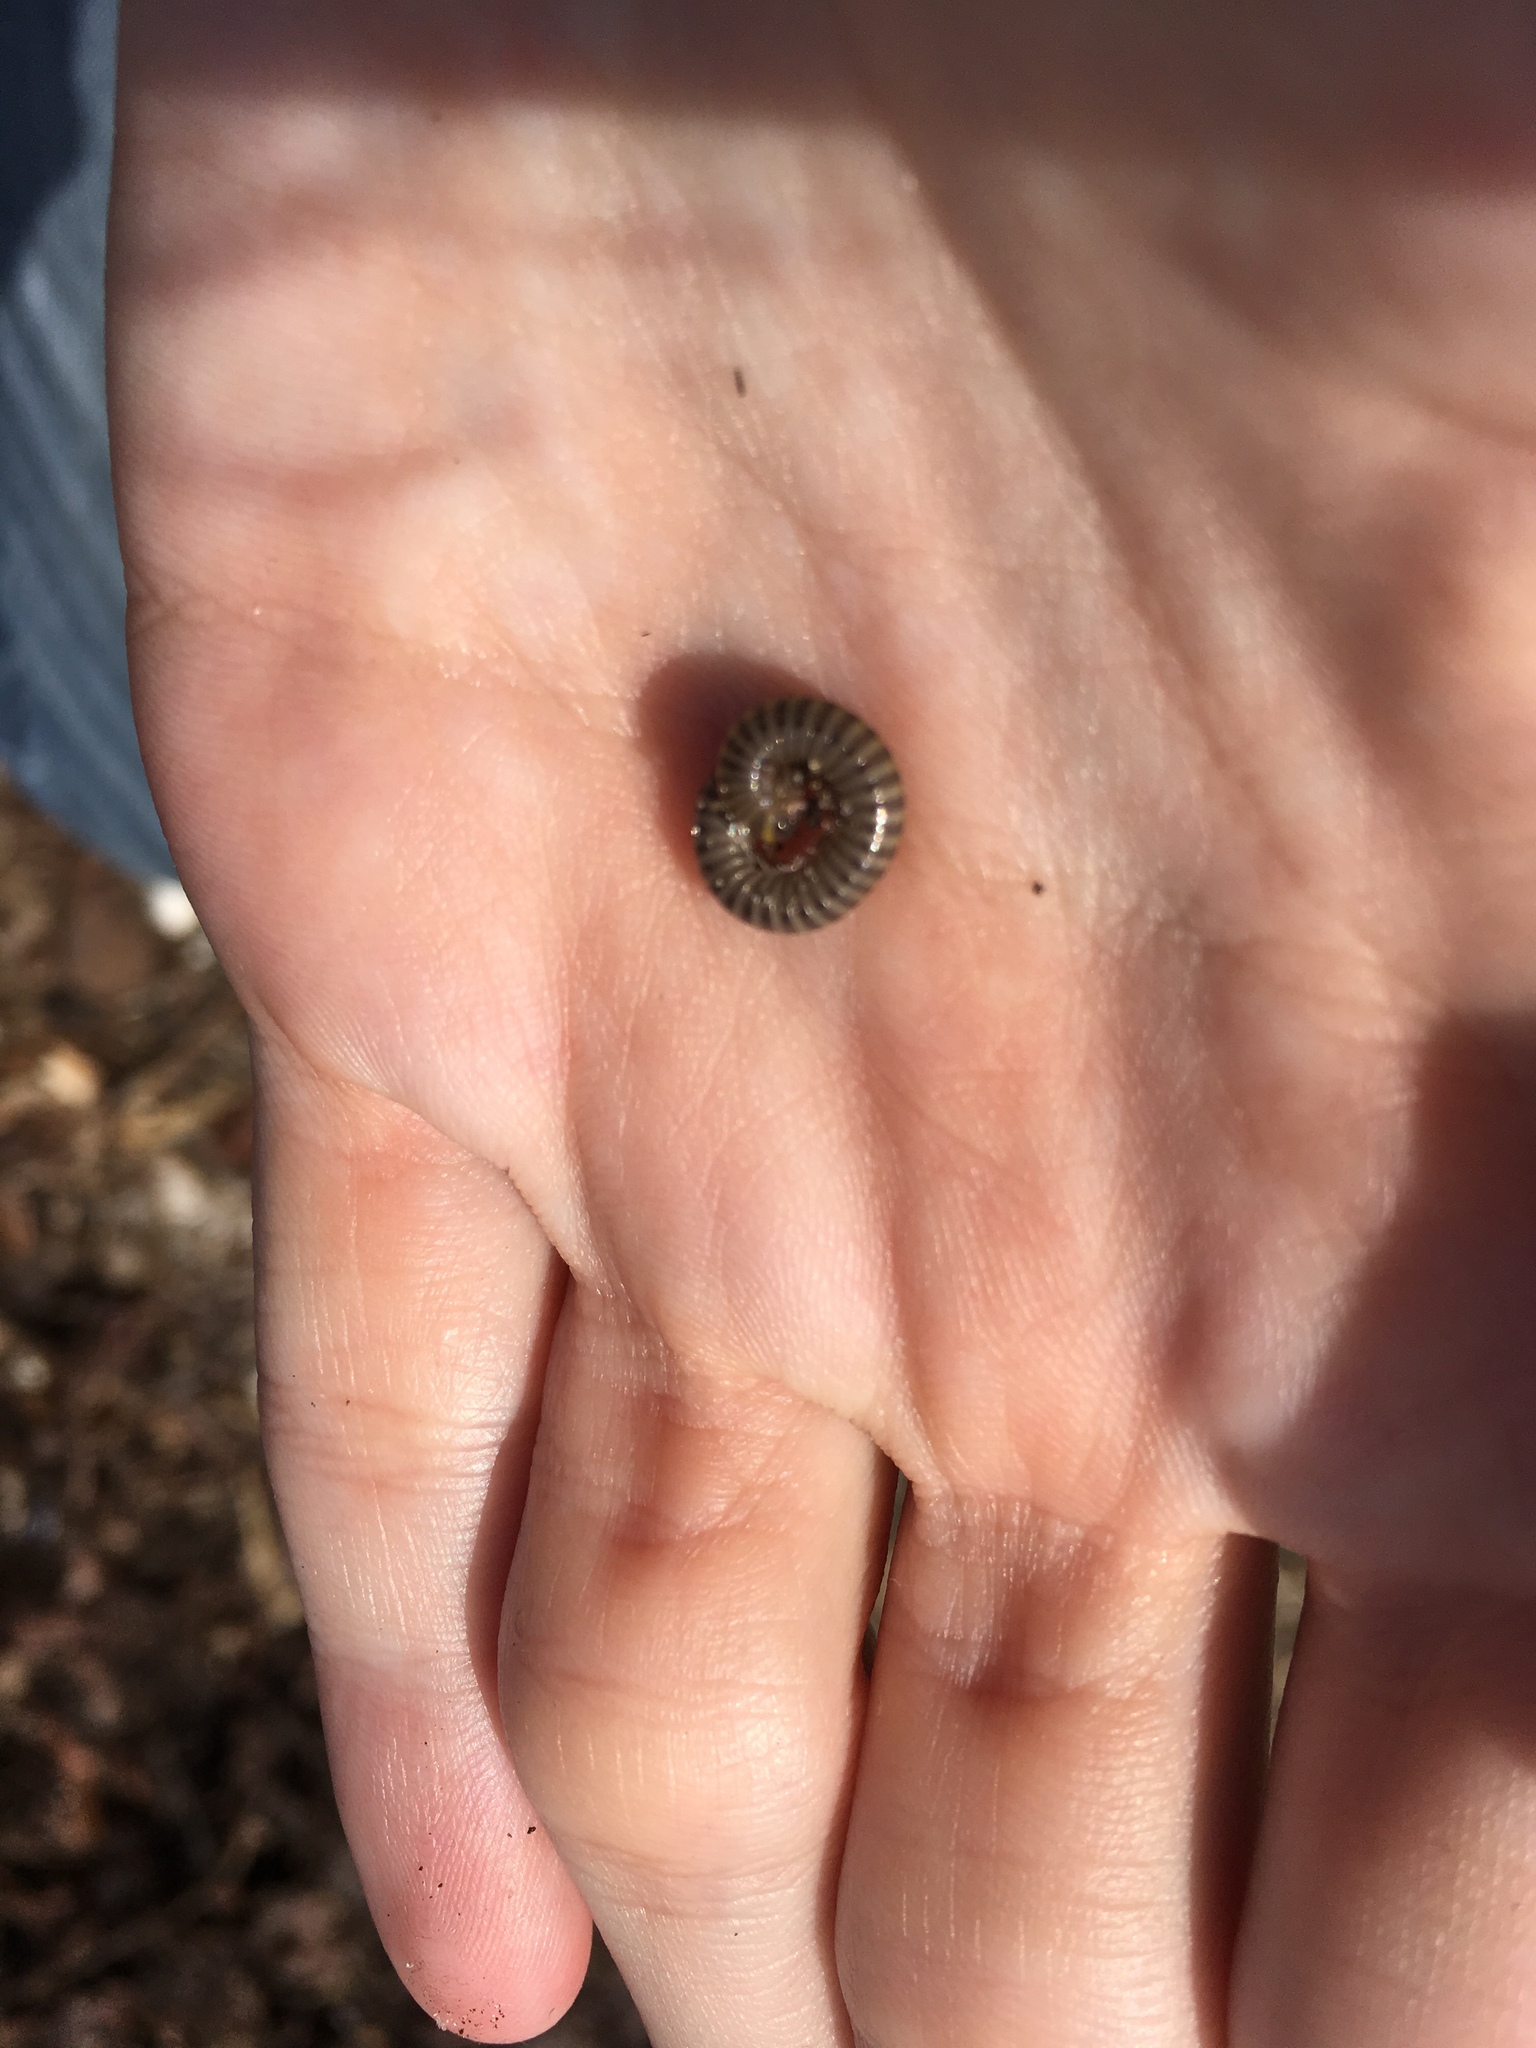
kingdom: Animalia
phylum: Arthropoda
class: Diplopoda
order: Spirobolida
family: Rhinocricidae
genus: Anadenobolus
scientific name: Anadenobolus monilicornis
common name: Caribbean millipede
